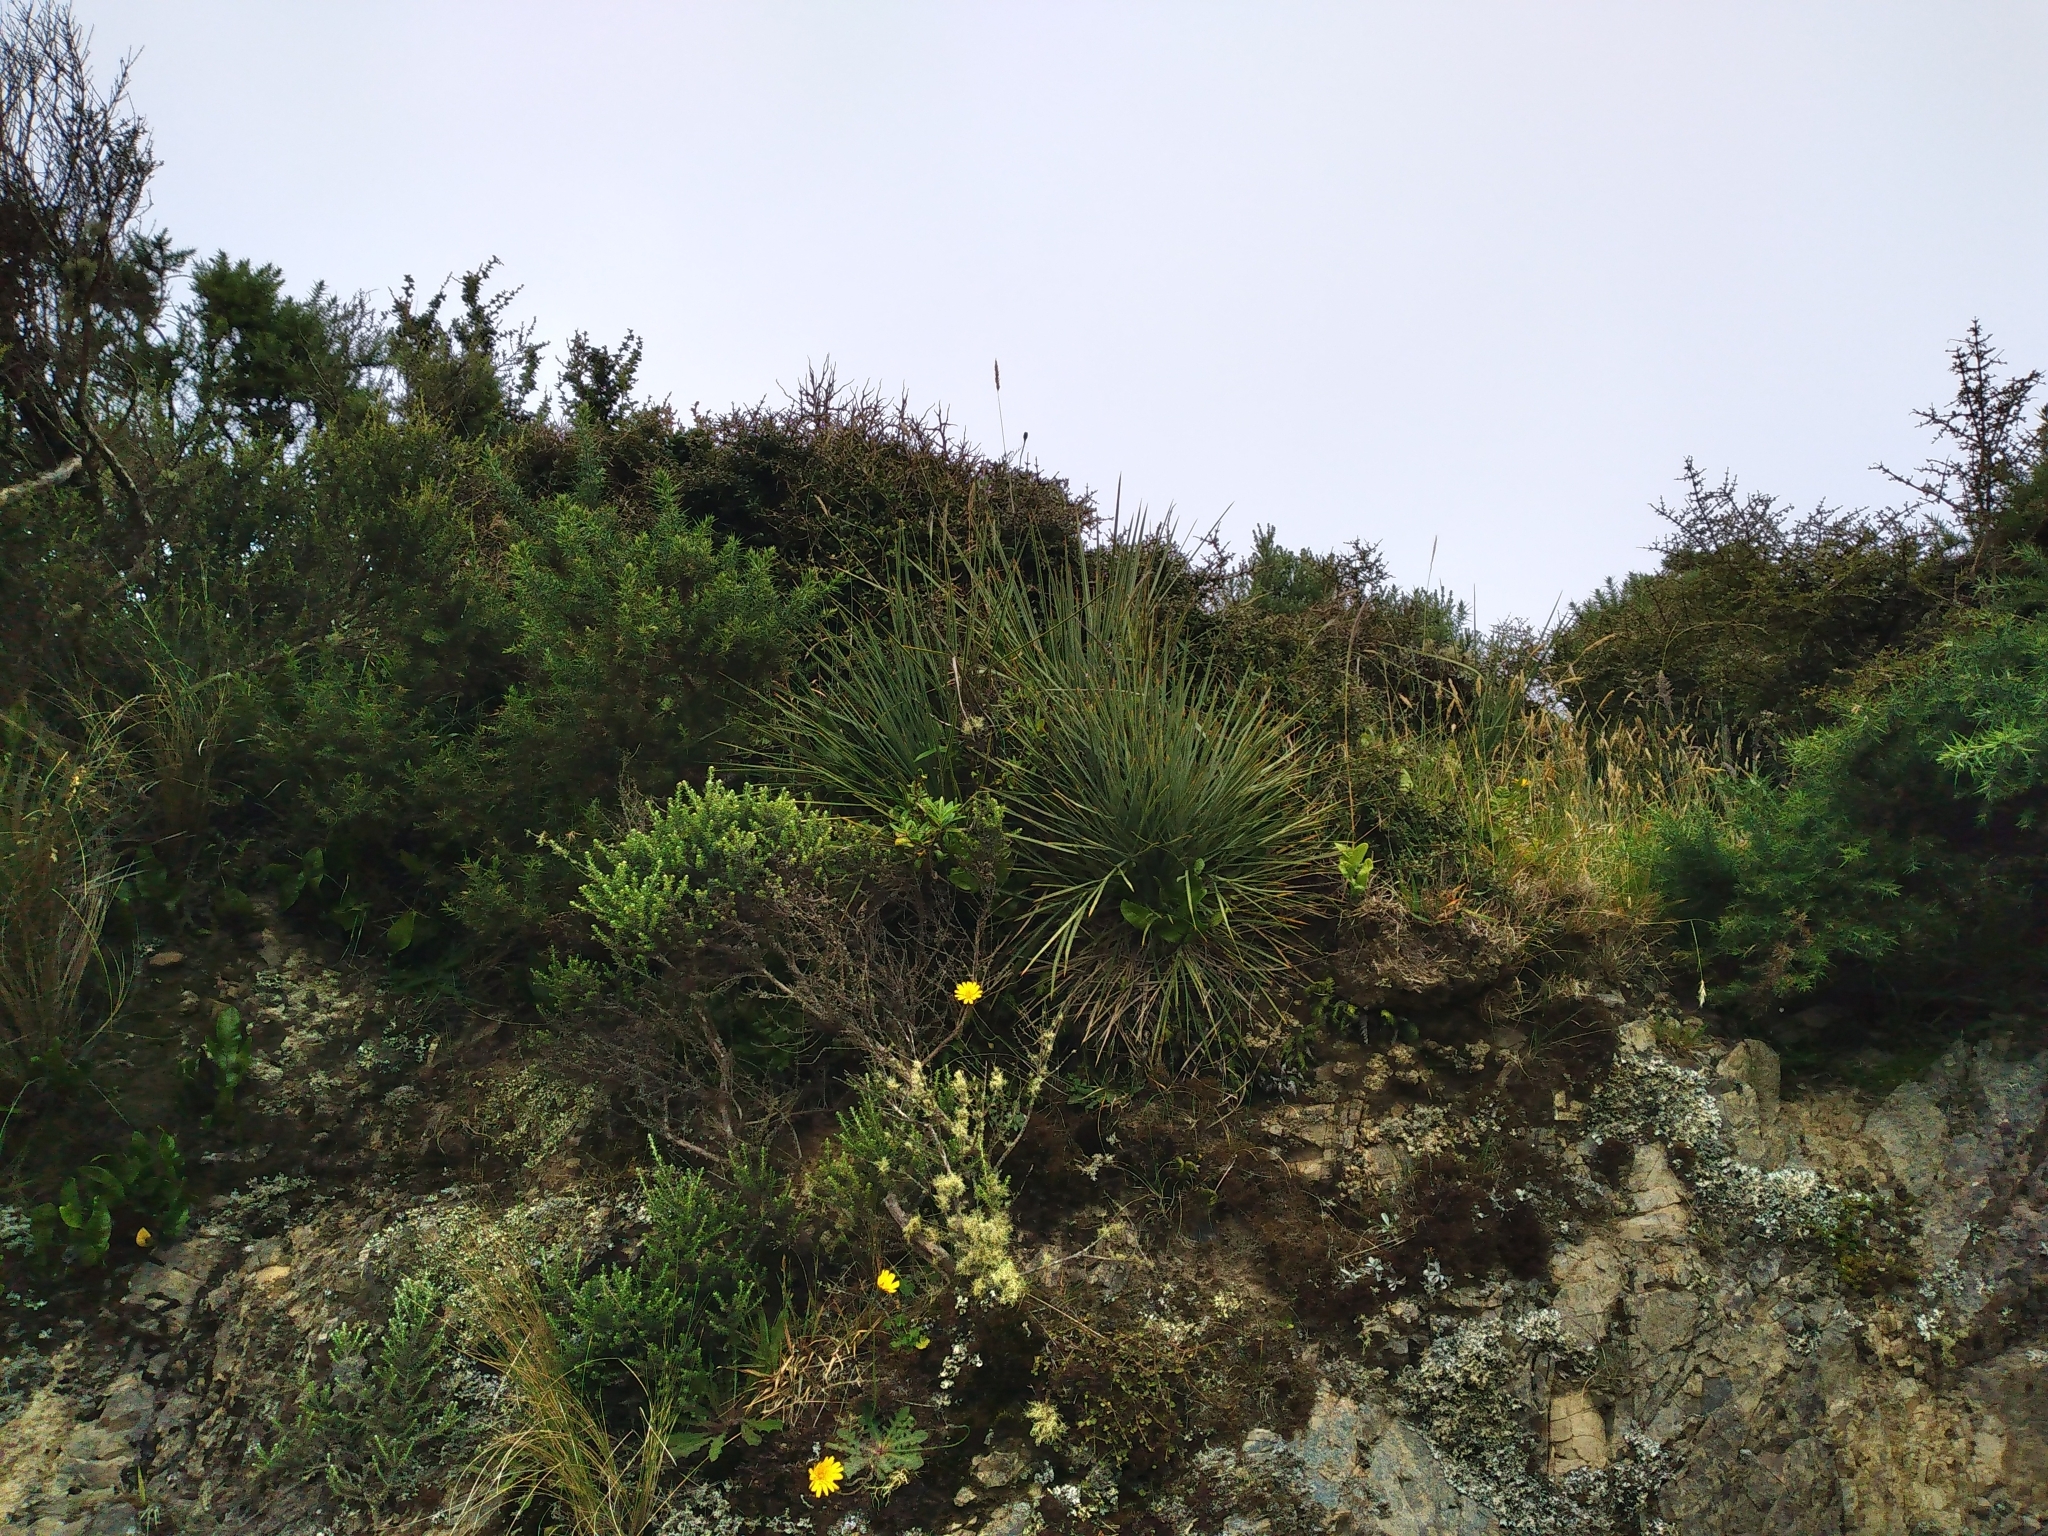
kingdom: Plantae
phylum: Tracheophyta
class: Magnoliopsida
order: Apiales
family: Apiaceae
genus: Aciphylla
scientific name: Aciphylla squarrosa
